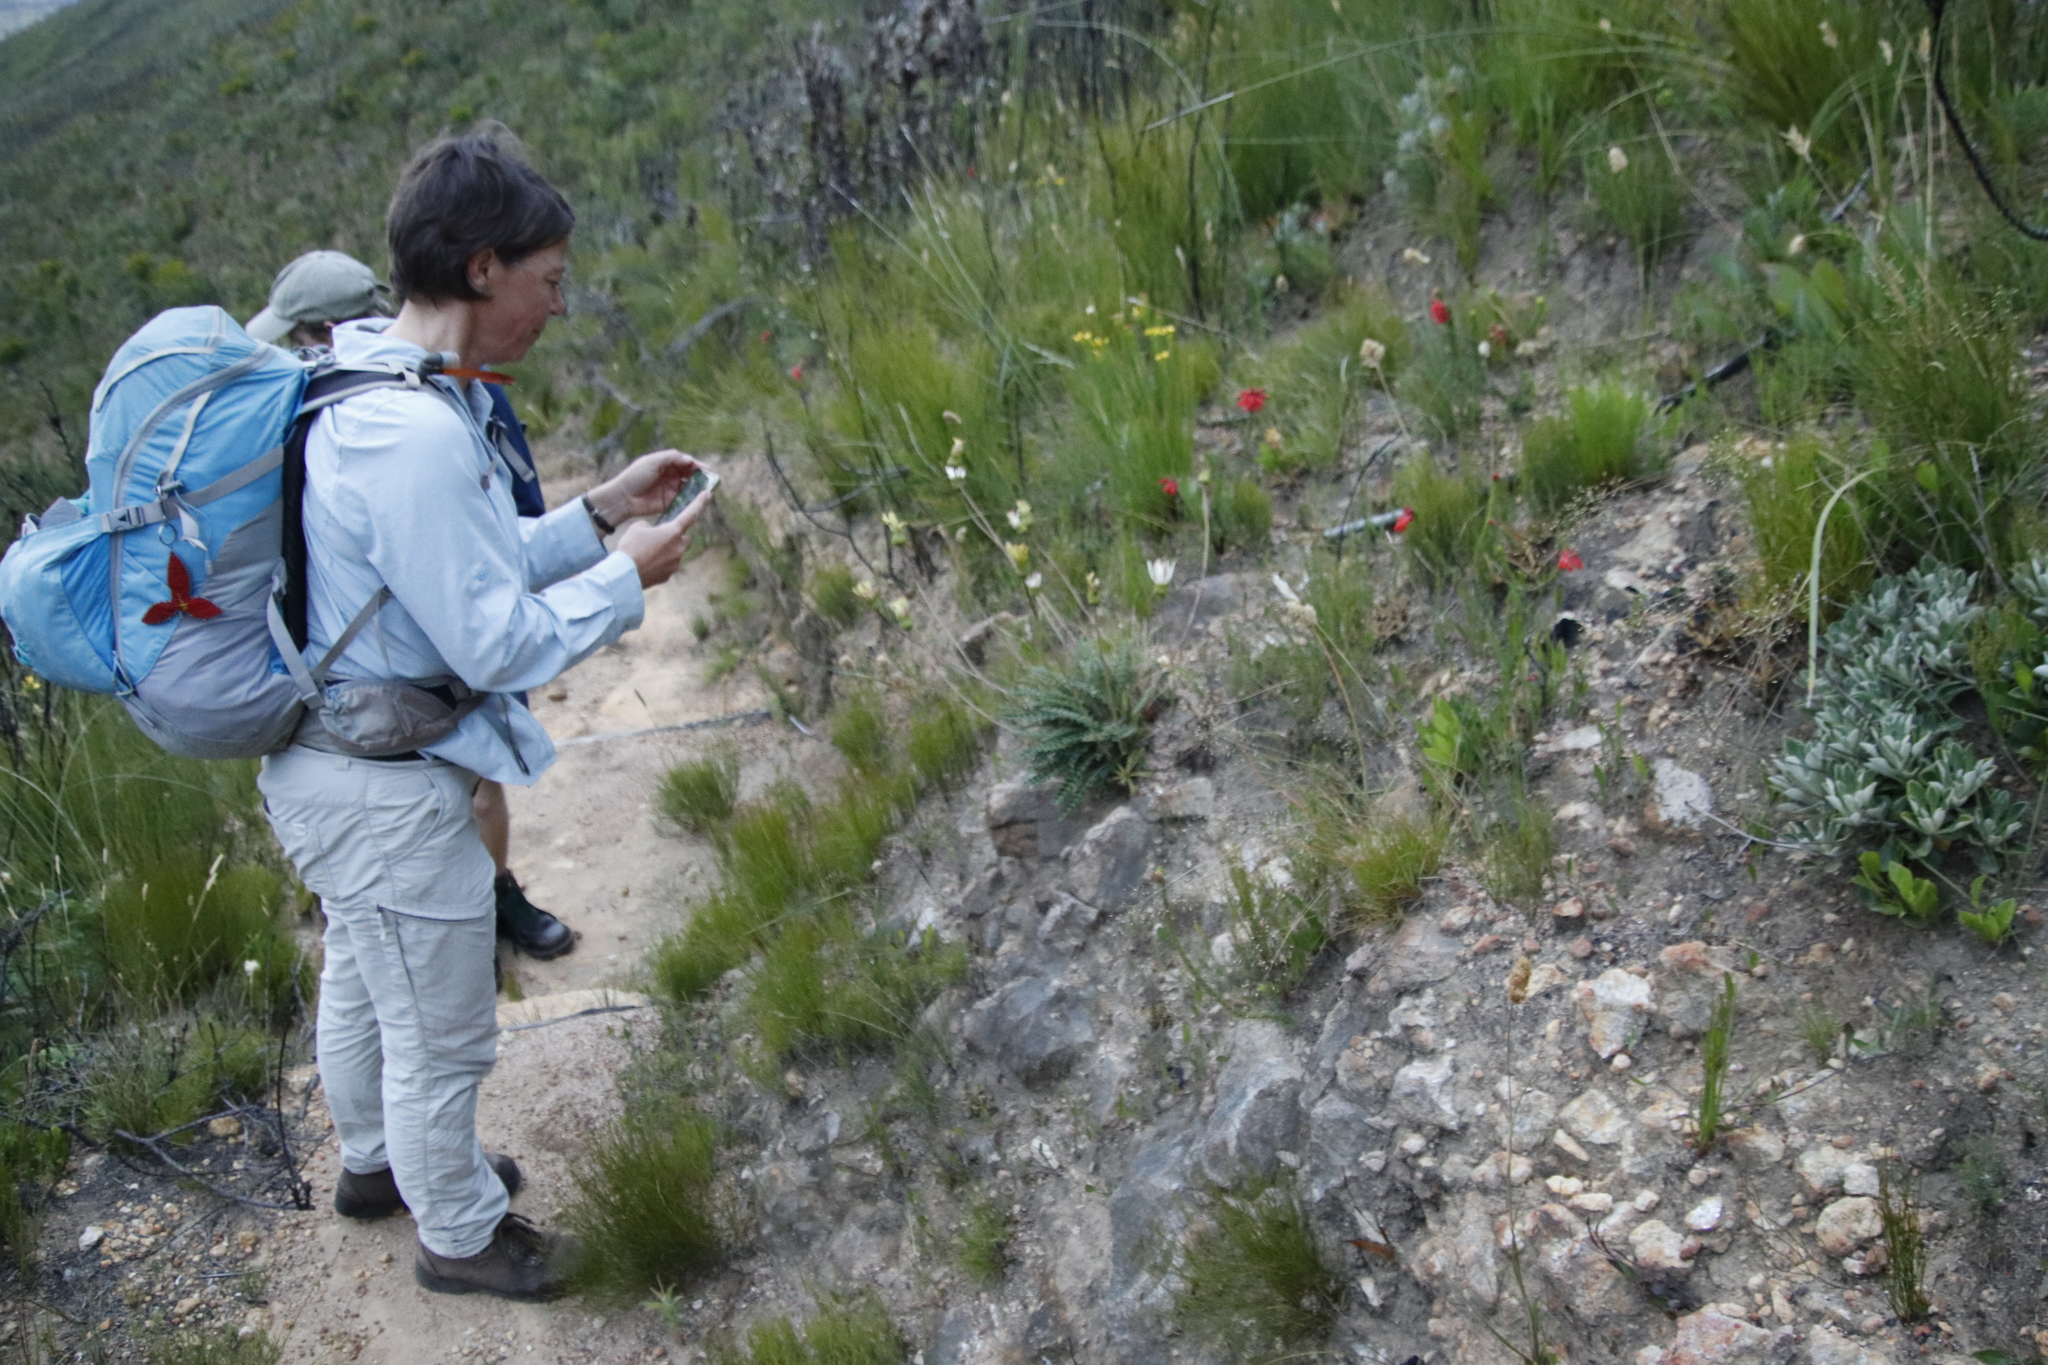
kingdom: Plantae
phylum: Tracheophyta
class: Magnoliopsida
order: Asterales
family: Asteraceae
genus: Gerbera
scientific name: Gerbera linnaei
